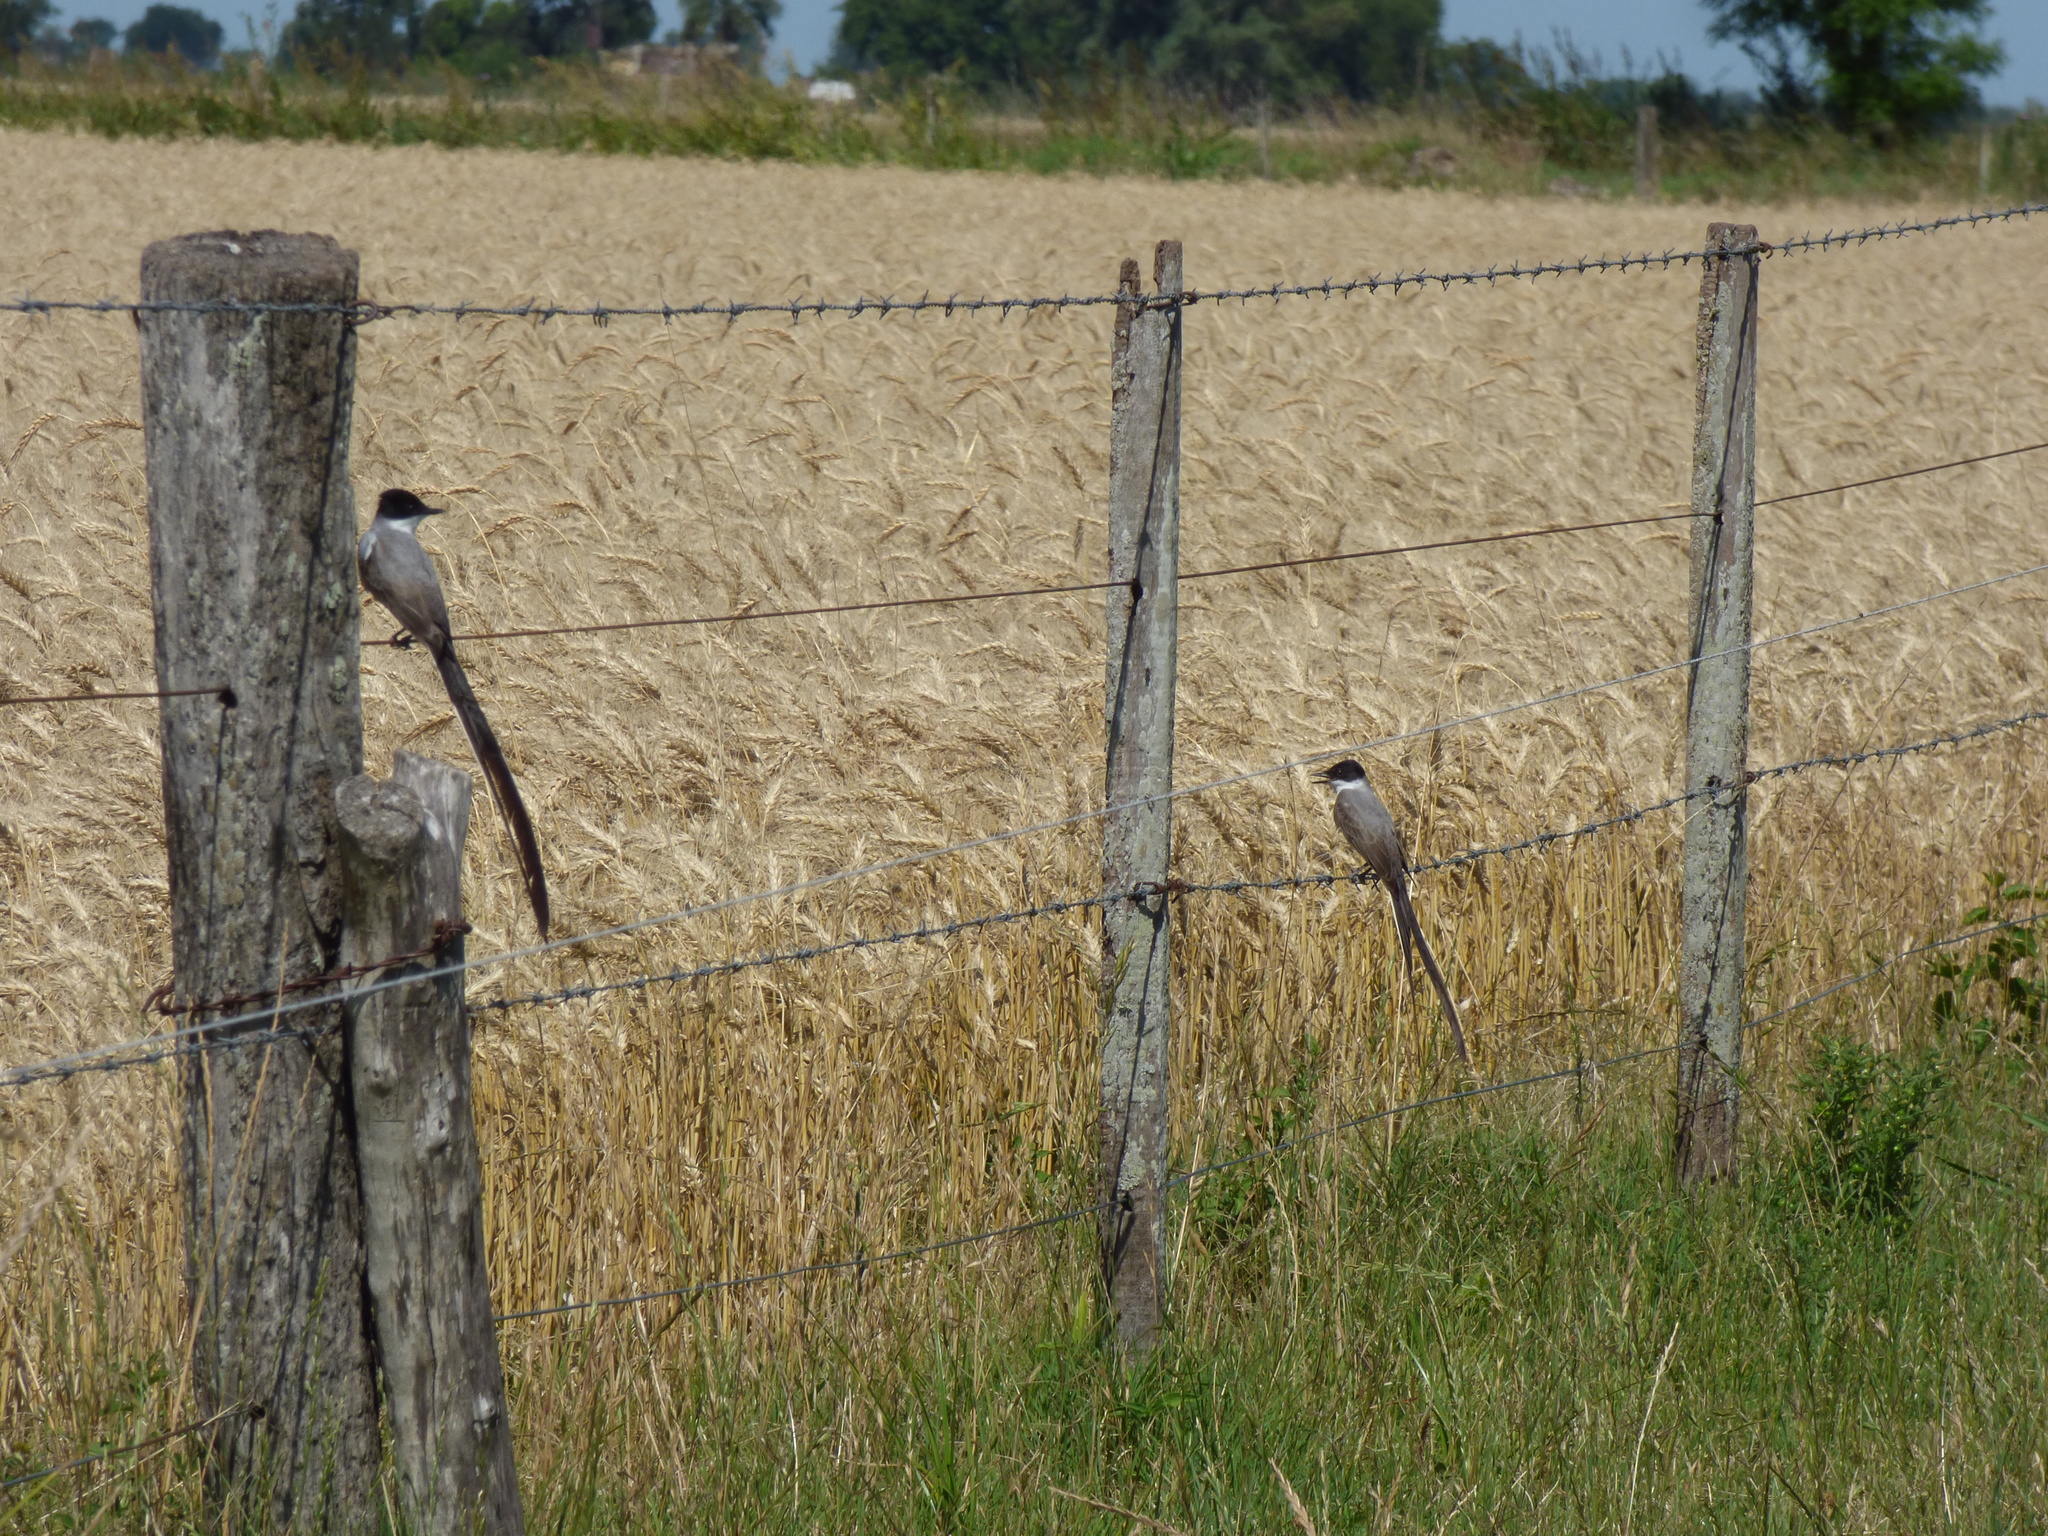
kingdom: Animalia
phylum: Chordata
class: Aves
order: Passeriformes
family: Tyrannidae
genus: Tyrannus
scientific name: Tyrannus savana
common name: Fork-tailed flycatcher
